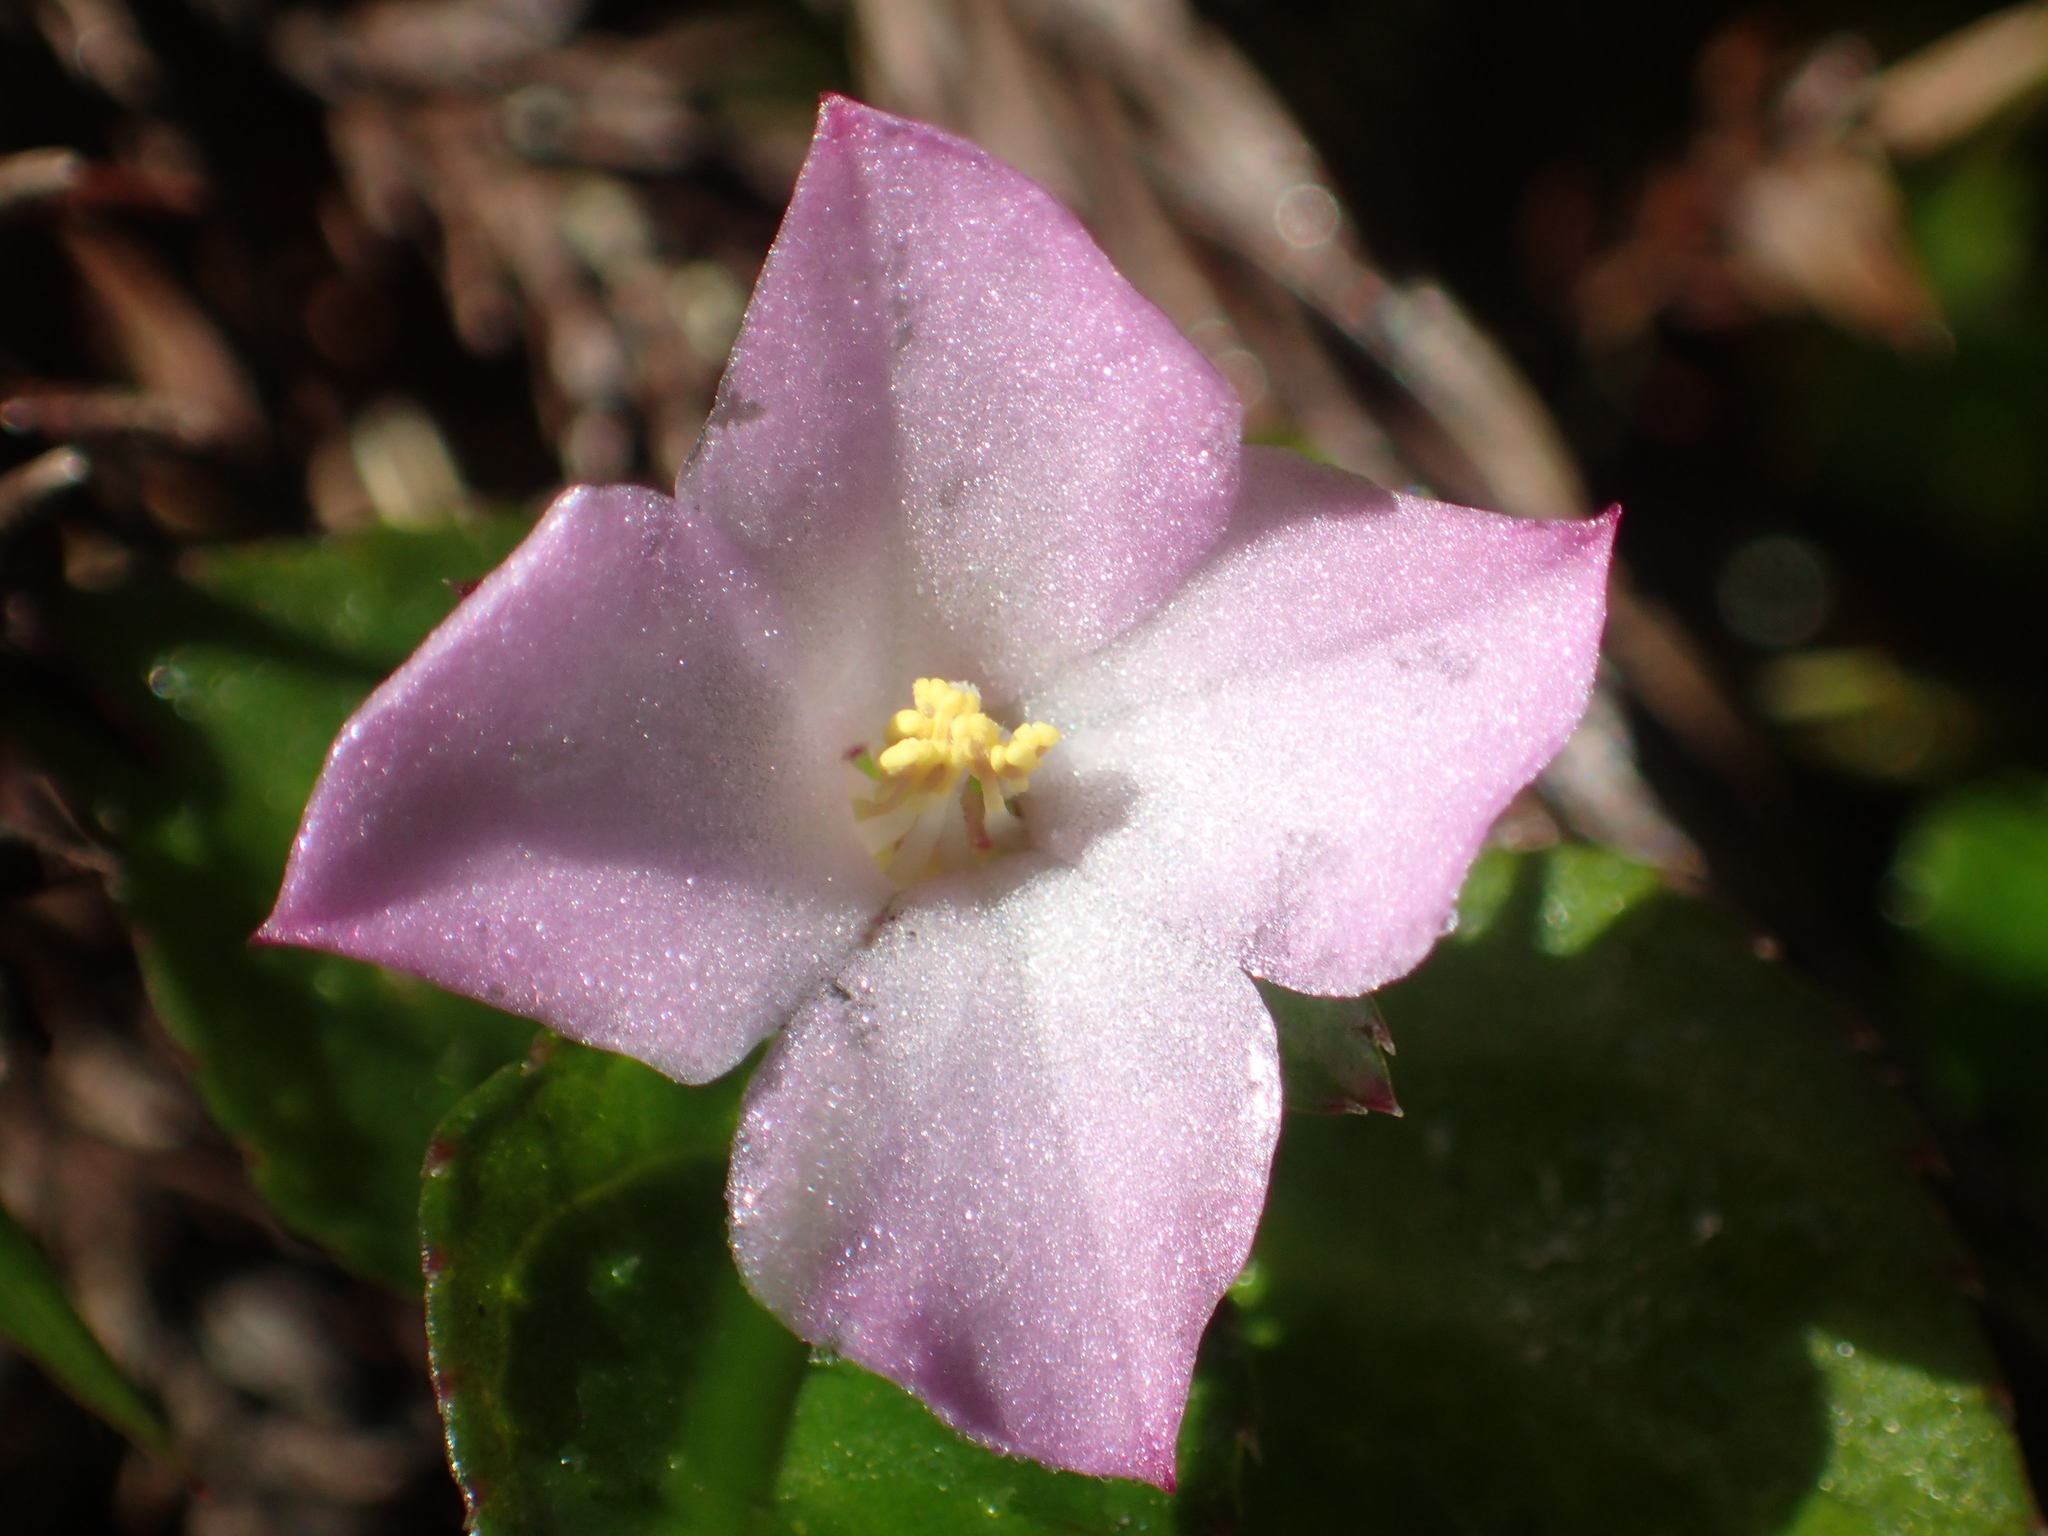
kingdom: Plantae
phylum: Tracheophyta
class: Magnoliopsida
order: Myrtales
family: Melastomataceae
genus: Sarcopyramis
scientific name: Sarcopyramis bodinieri
